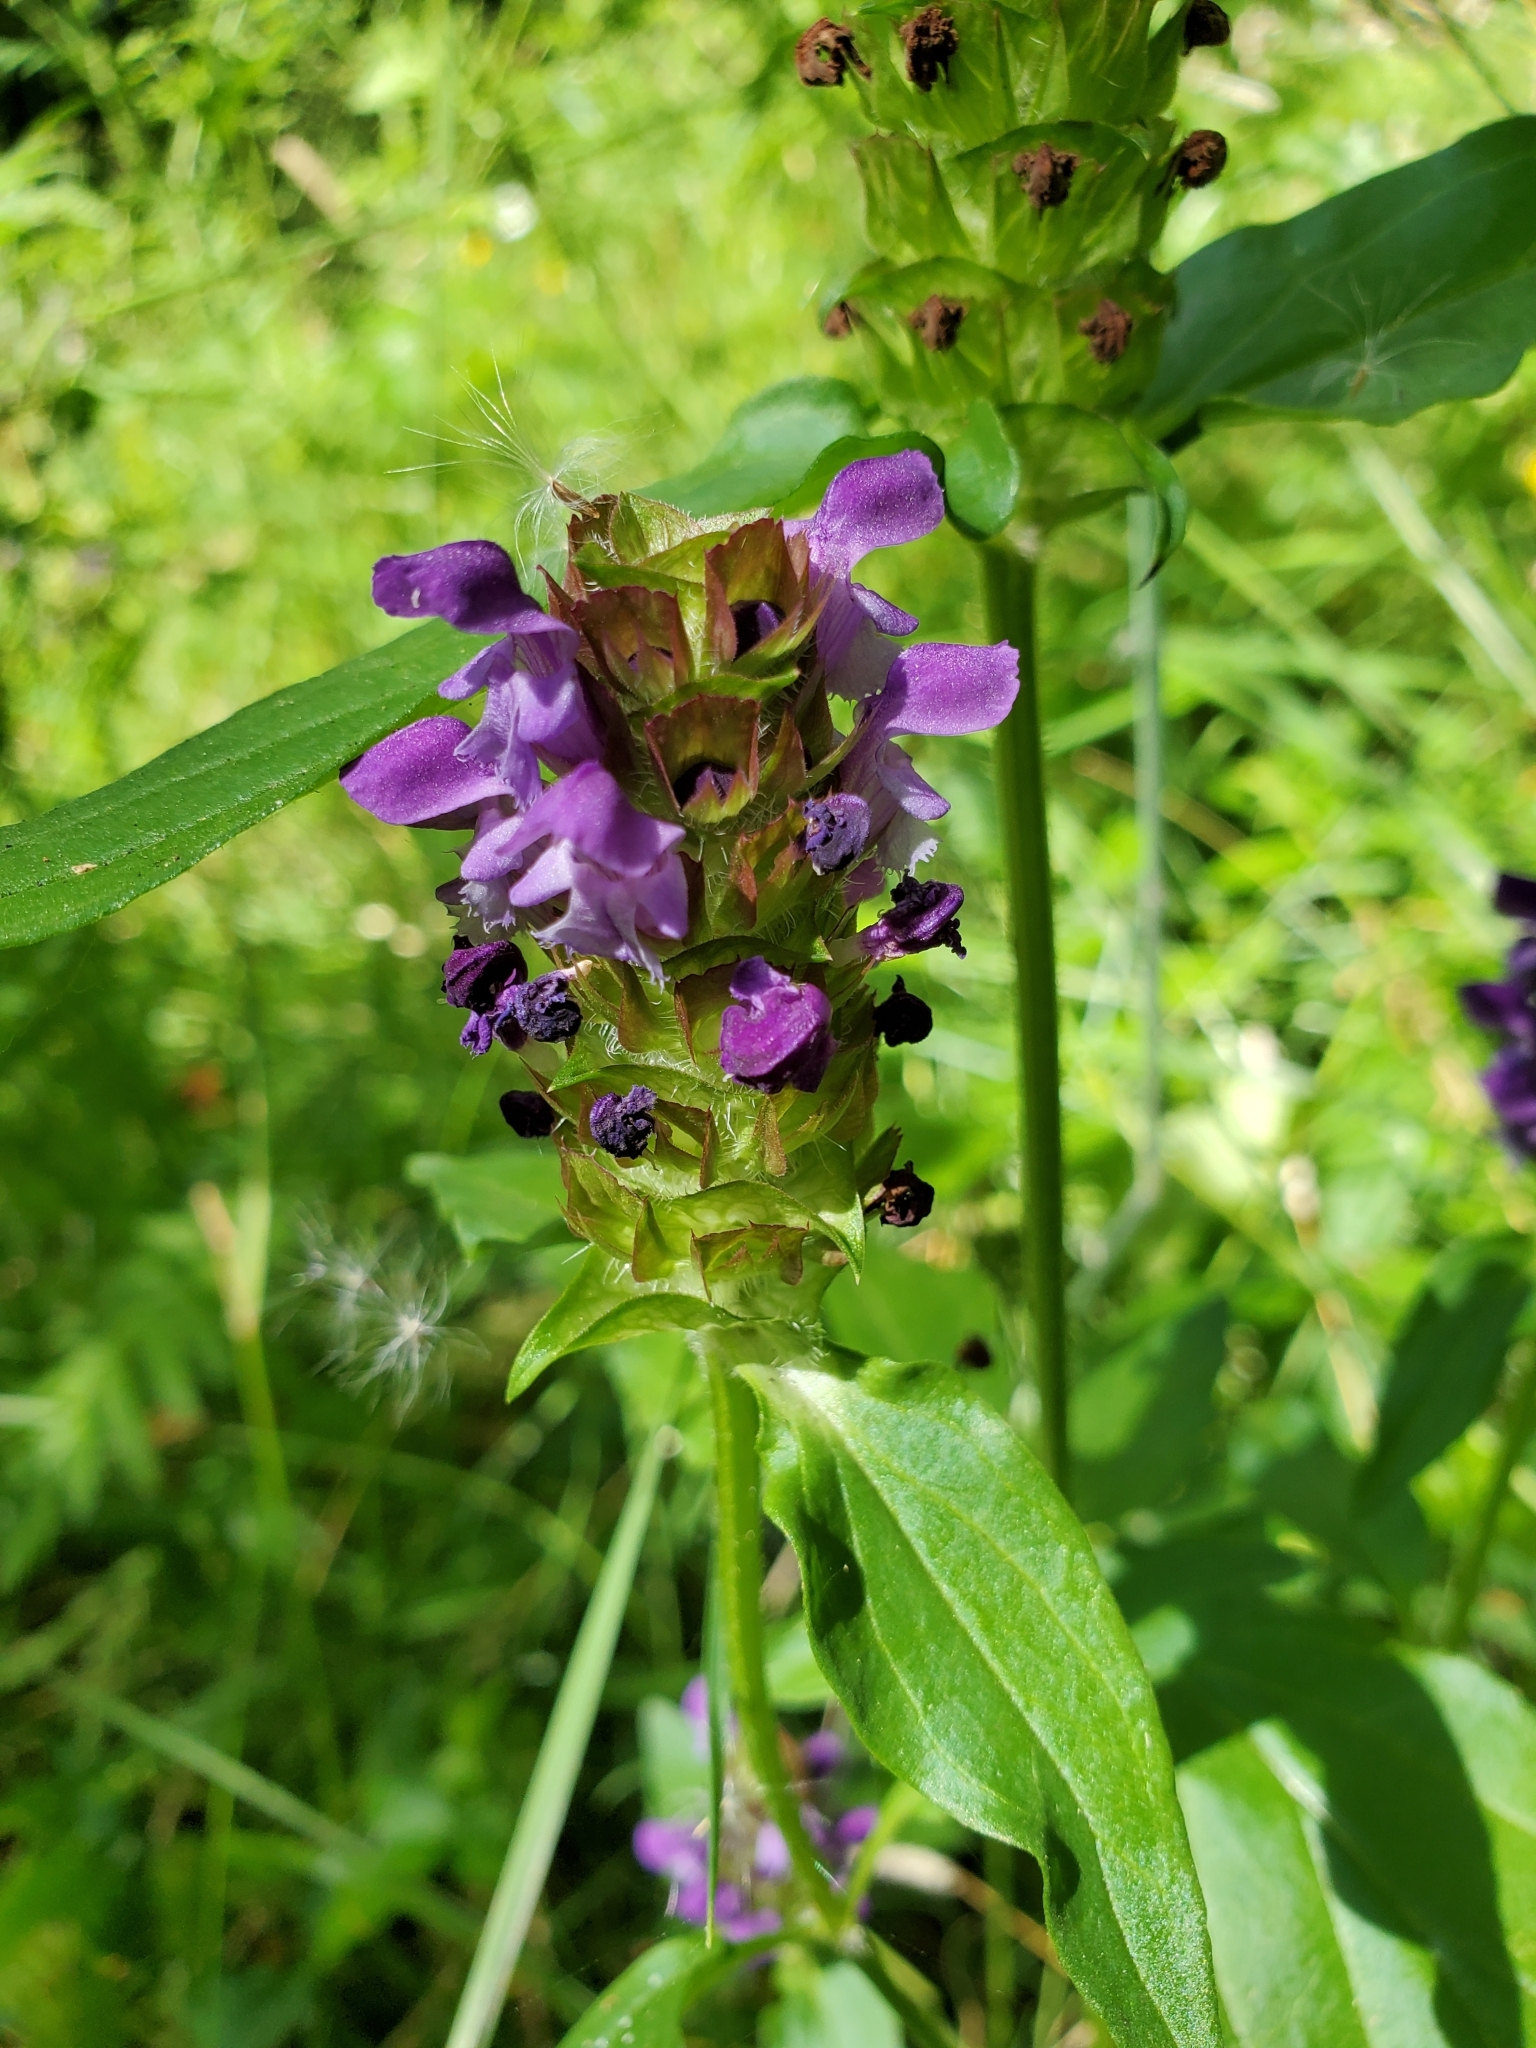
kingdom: Plantae
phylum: Tracheophyta
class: Magnoliopsida
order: Lamiales
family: Lamiaceae
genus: Prunella
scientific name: Prunella vulgaris
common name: Heal-all
